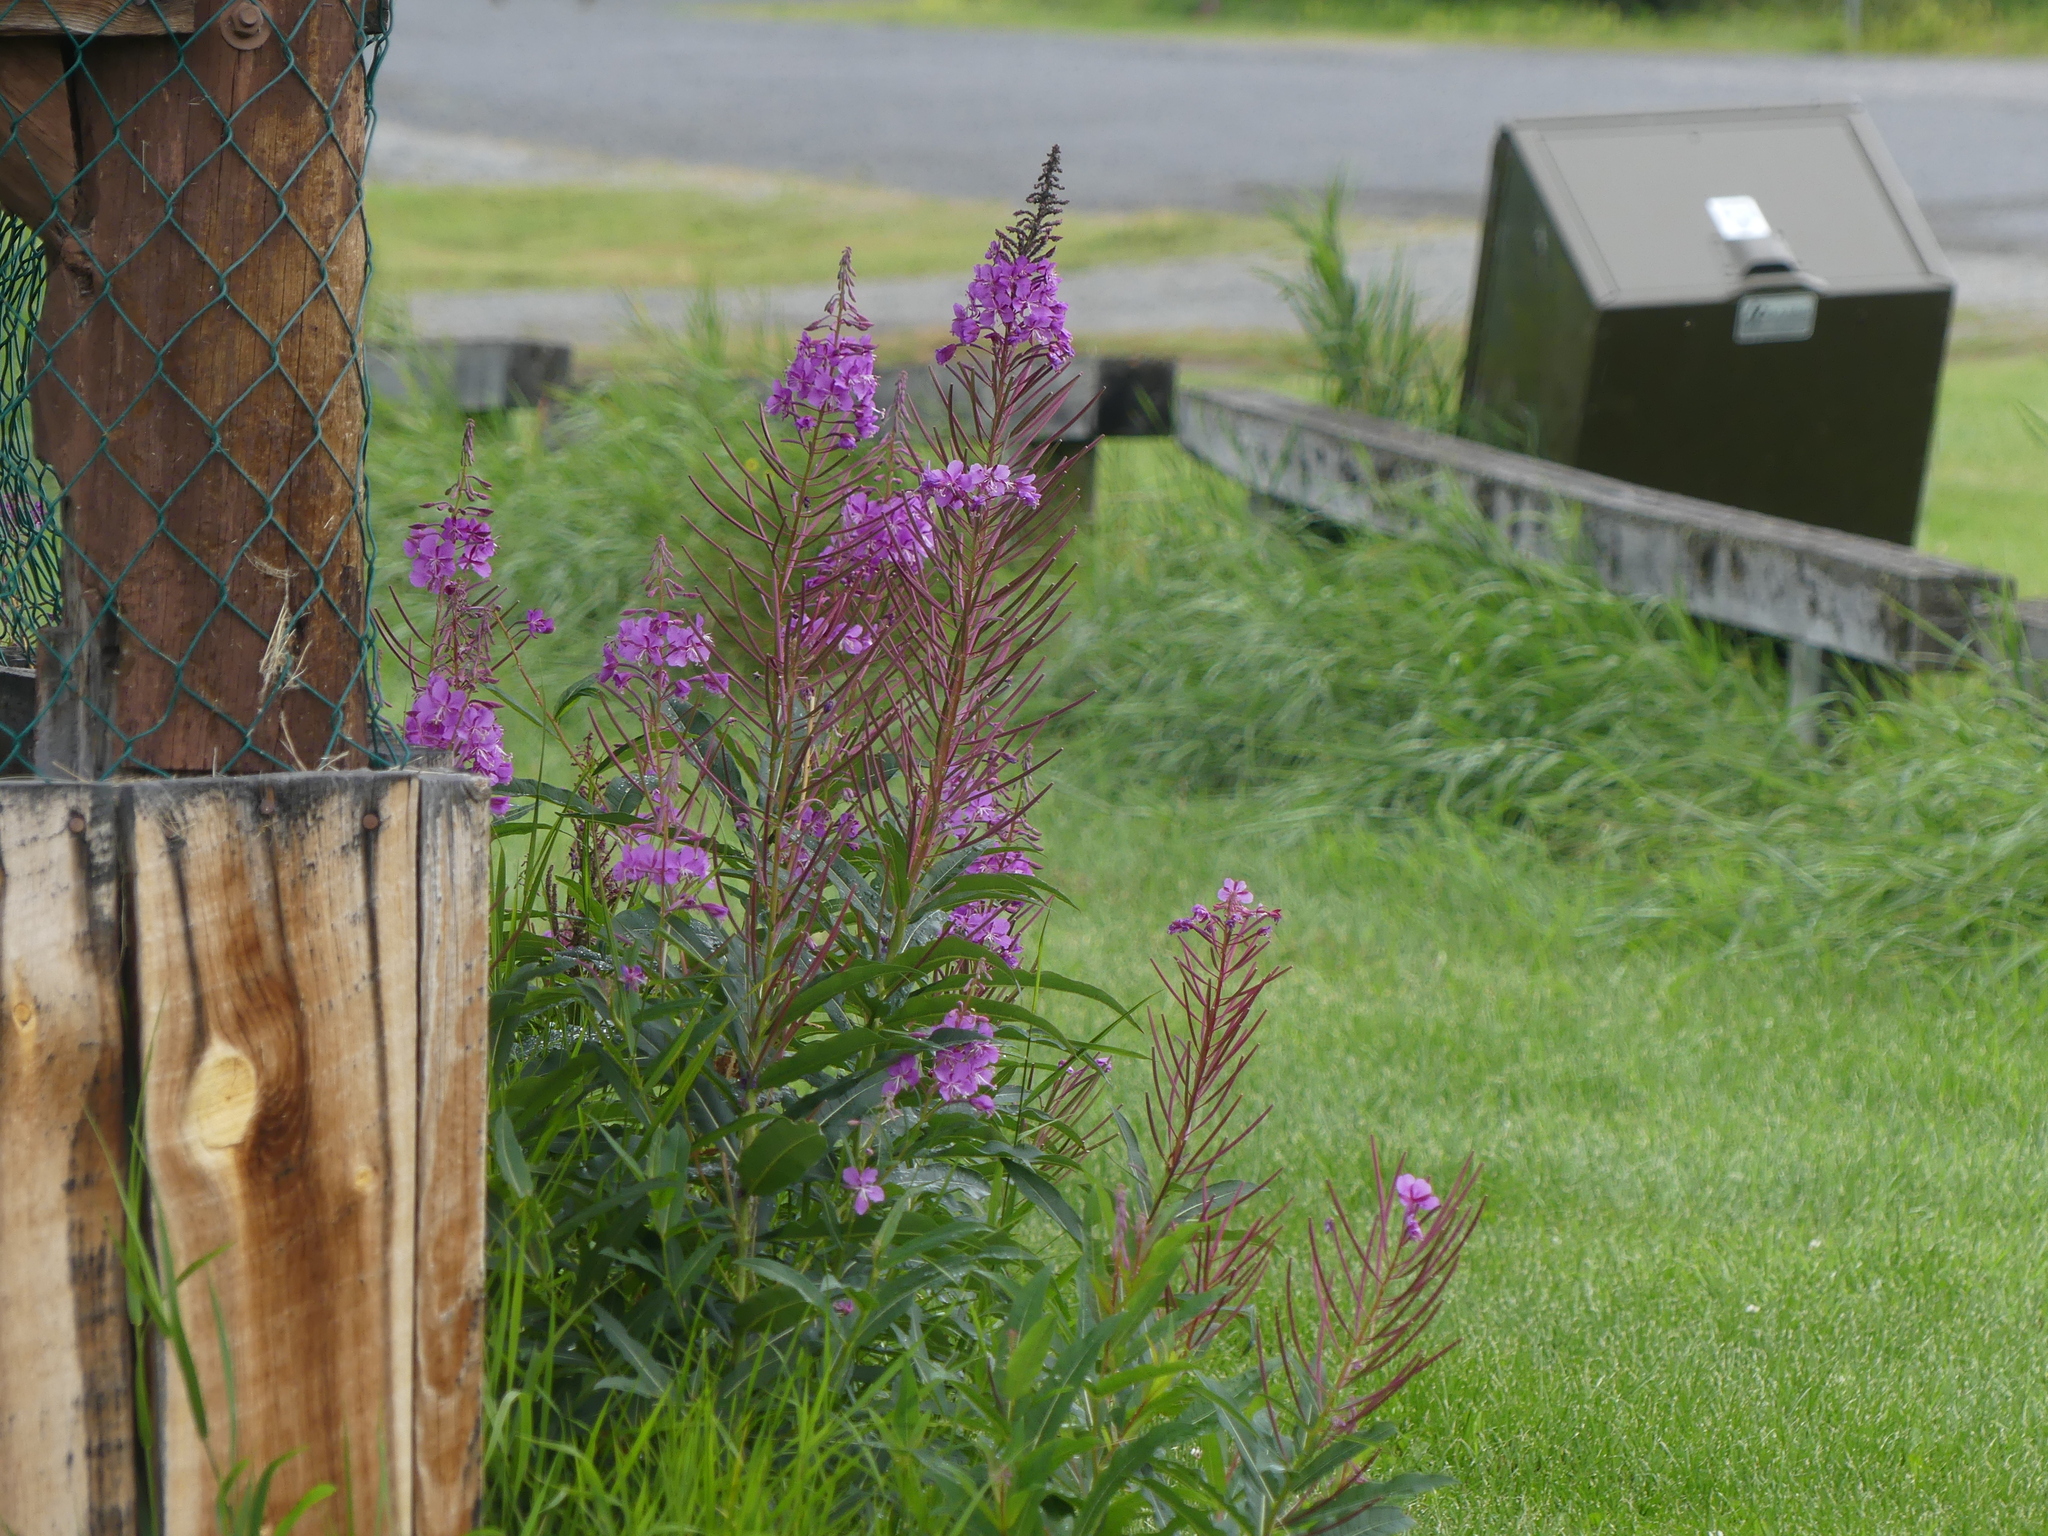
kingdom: Plantae
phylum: Tracheophyta
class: Magnoliopsida
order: Myrtales
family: Onagraceae
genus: Chamaenerion
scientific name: Chamaenerion angustifolium
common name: Fireweed
